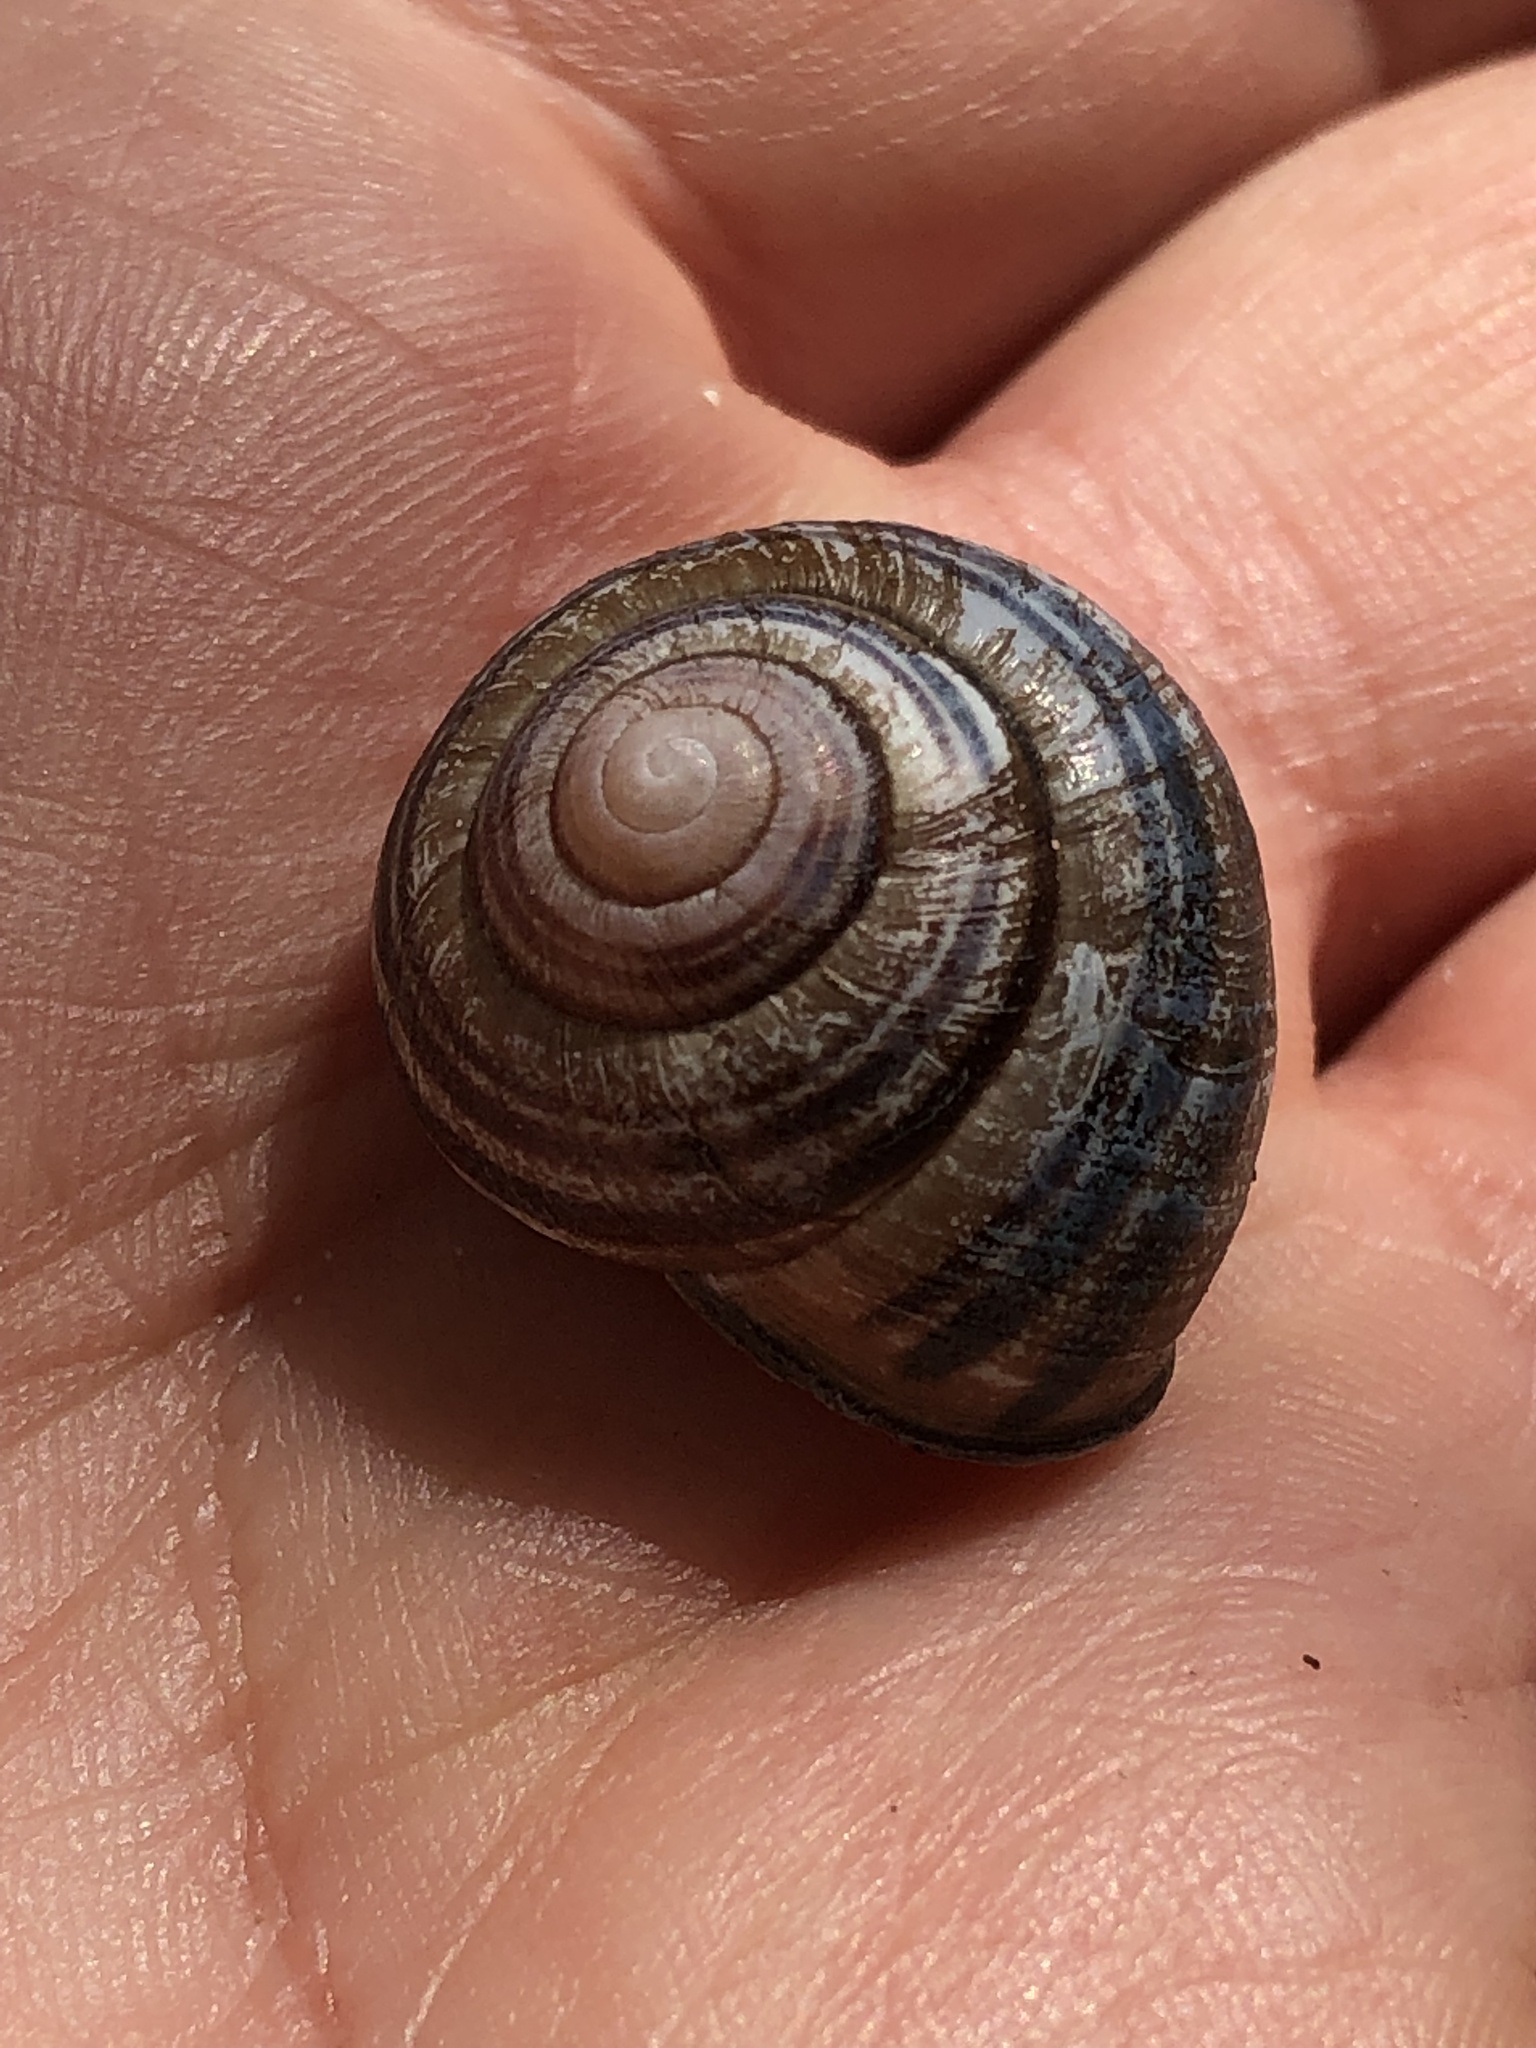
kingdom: Animalia
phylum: Mollusca
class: Gastropoda
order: Stylommatophora
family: Helicidae
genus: Cepaea
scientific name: Cepaea nemoralis
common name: Grovesnail
